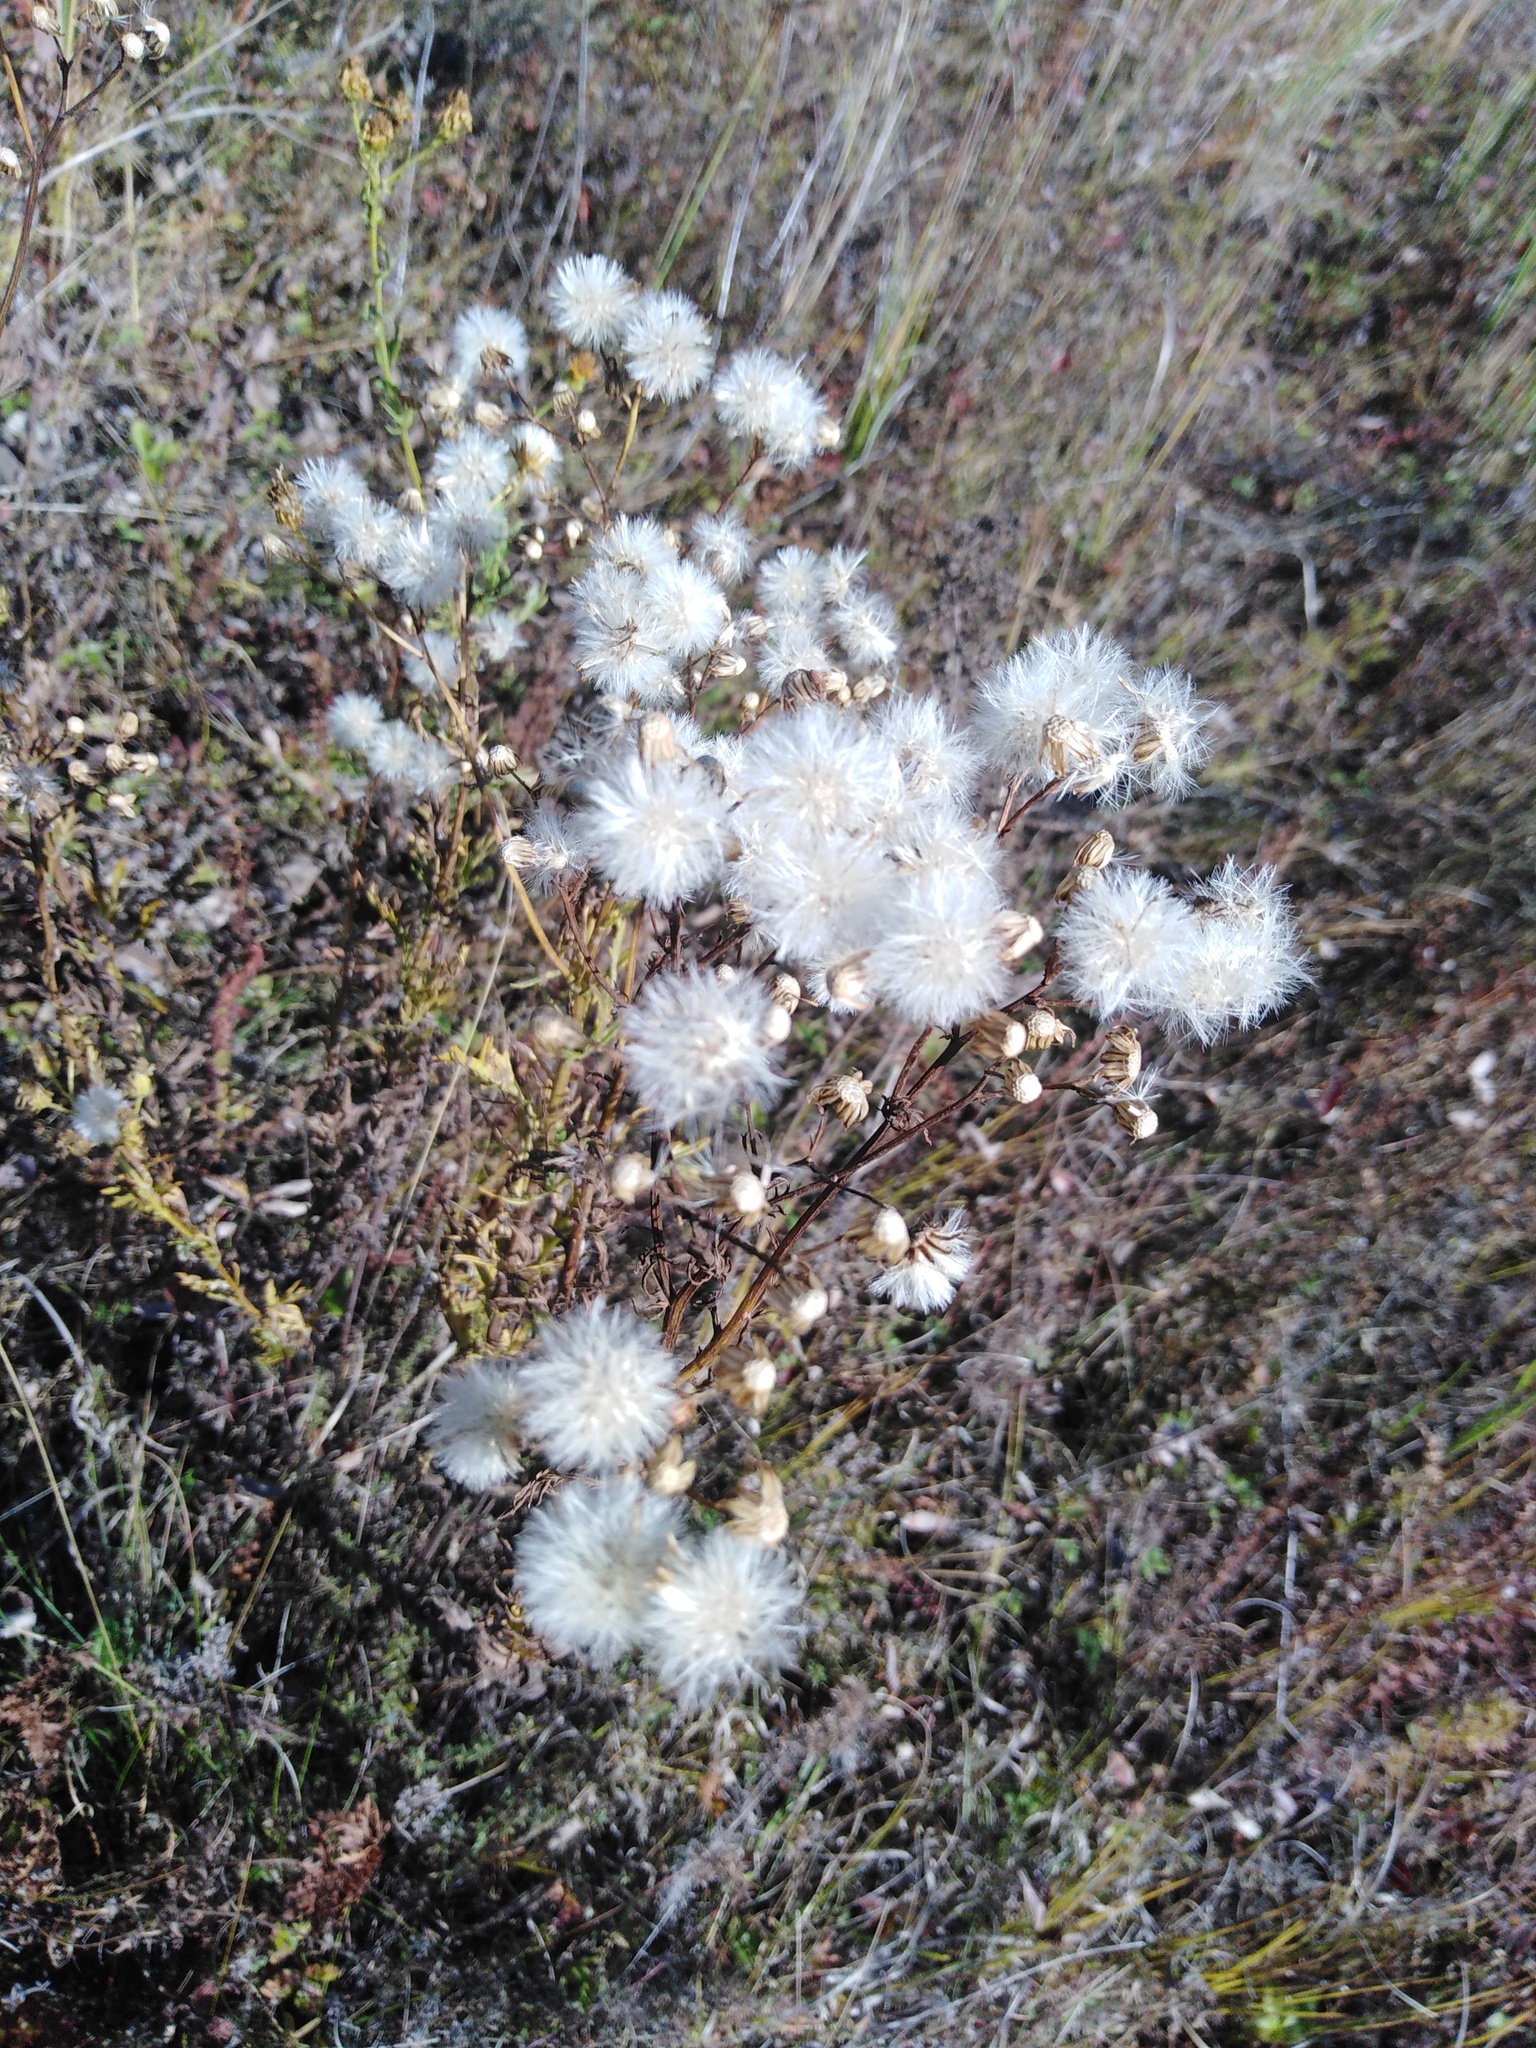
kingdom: Plantae
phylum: Tracheophyta
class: Magnoliopsida
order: Asterales
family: Asteraceae
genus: Jacobaea
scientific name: Jacobaea erucifolia
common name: Hoary ragwort
